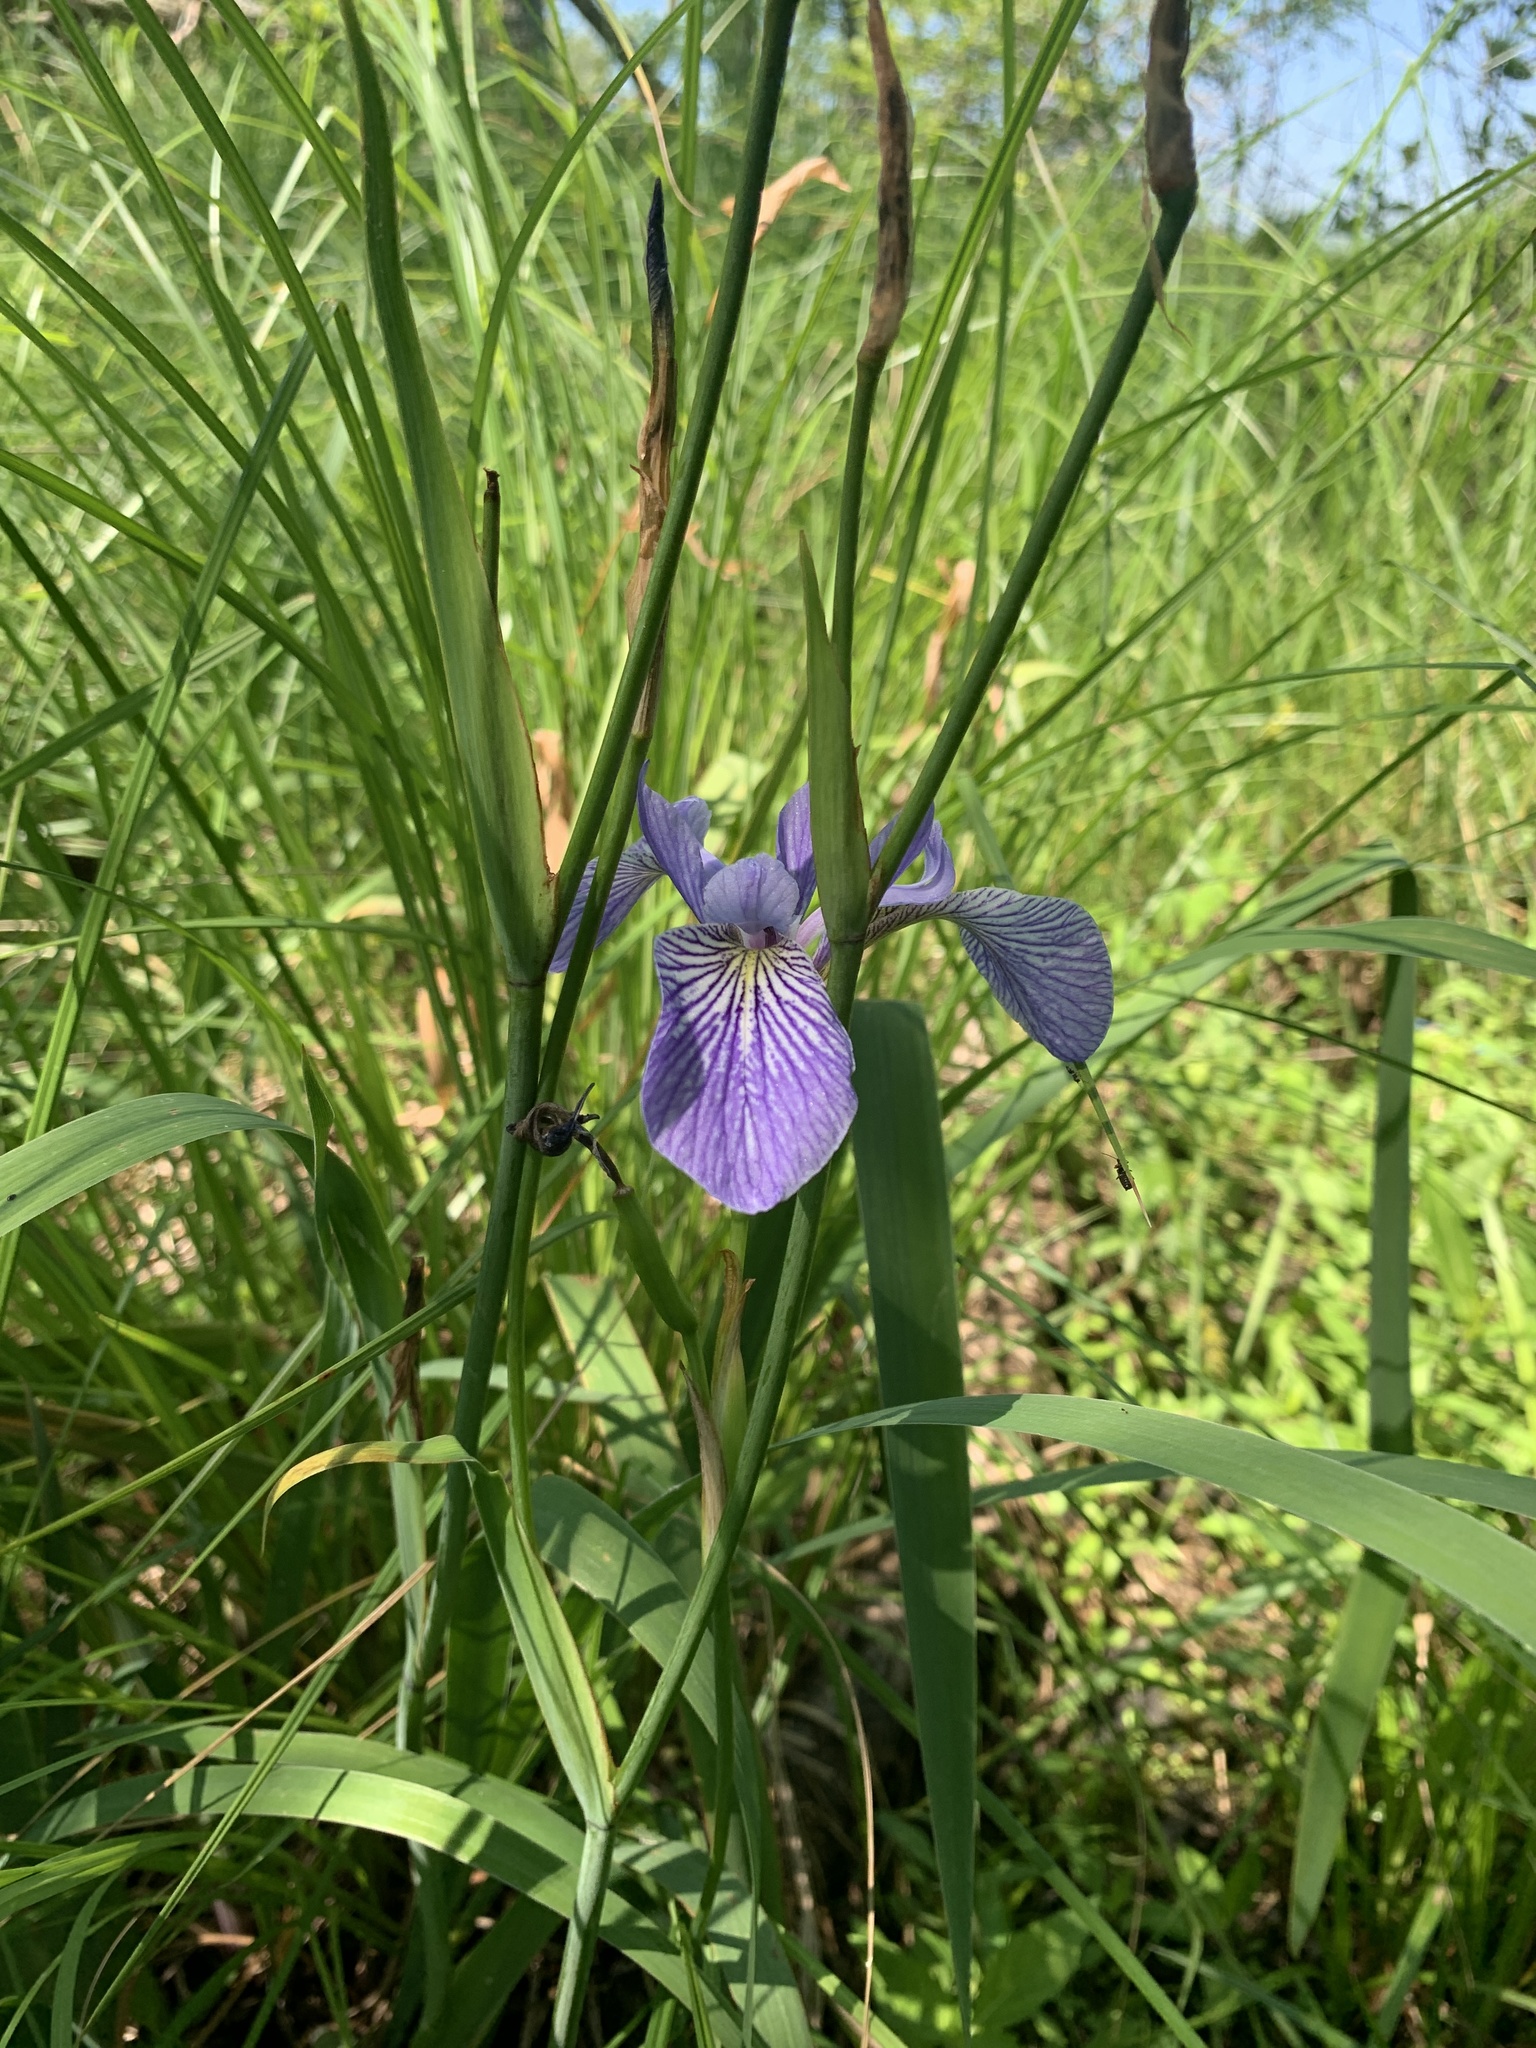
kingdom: Plantae
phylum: Tracheophyta
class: Liliopsida
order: Asparagales
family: Iridaceae
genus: Iris
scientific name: Iris versicolor
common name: Purple iris
